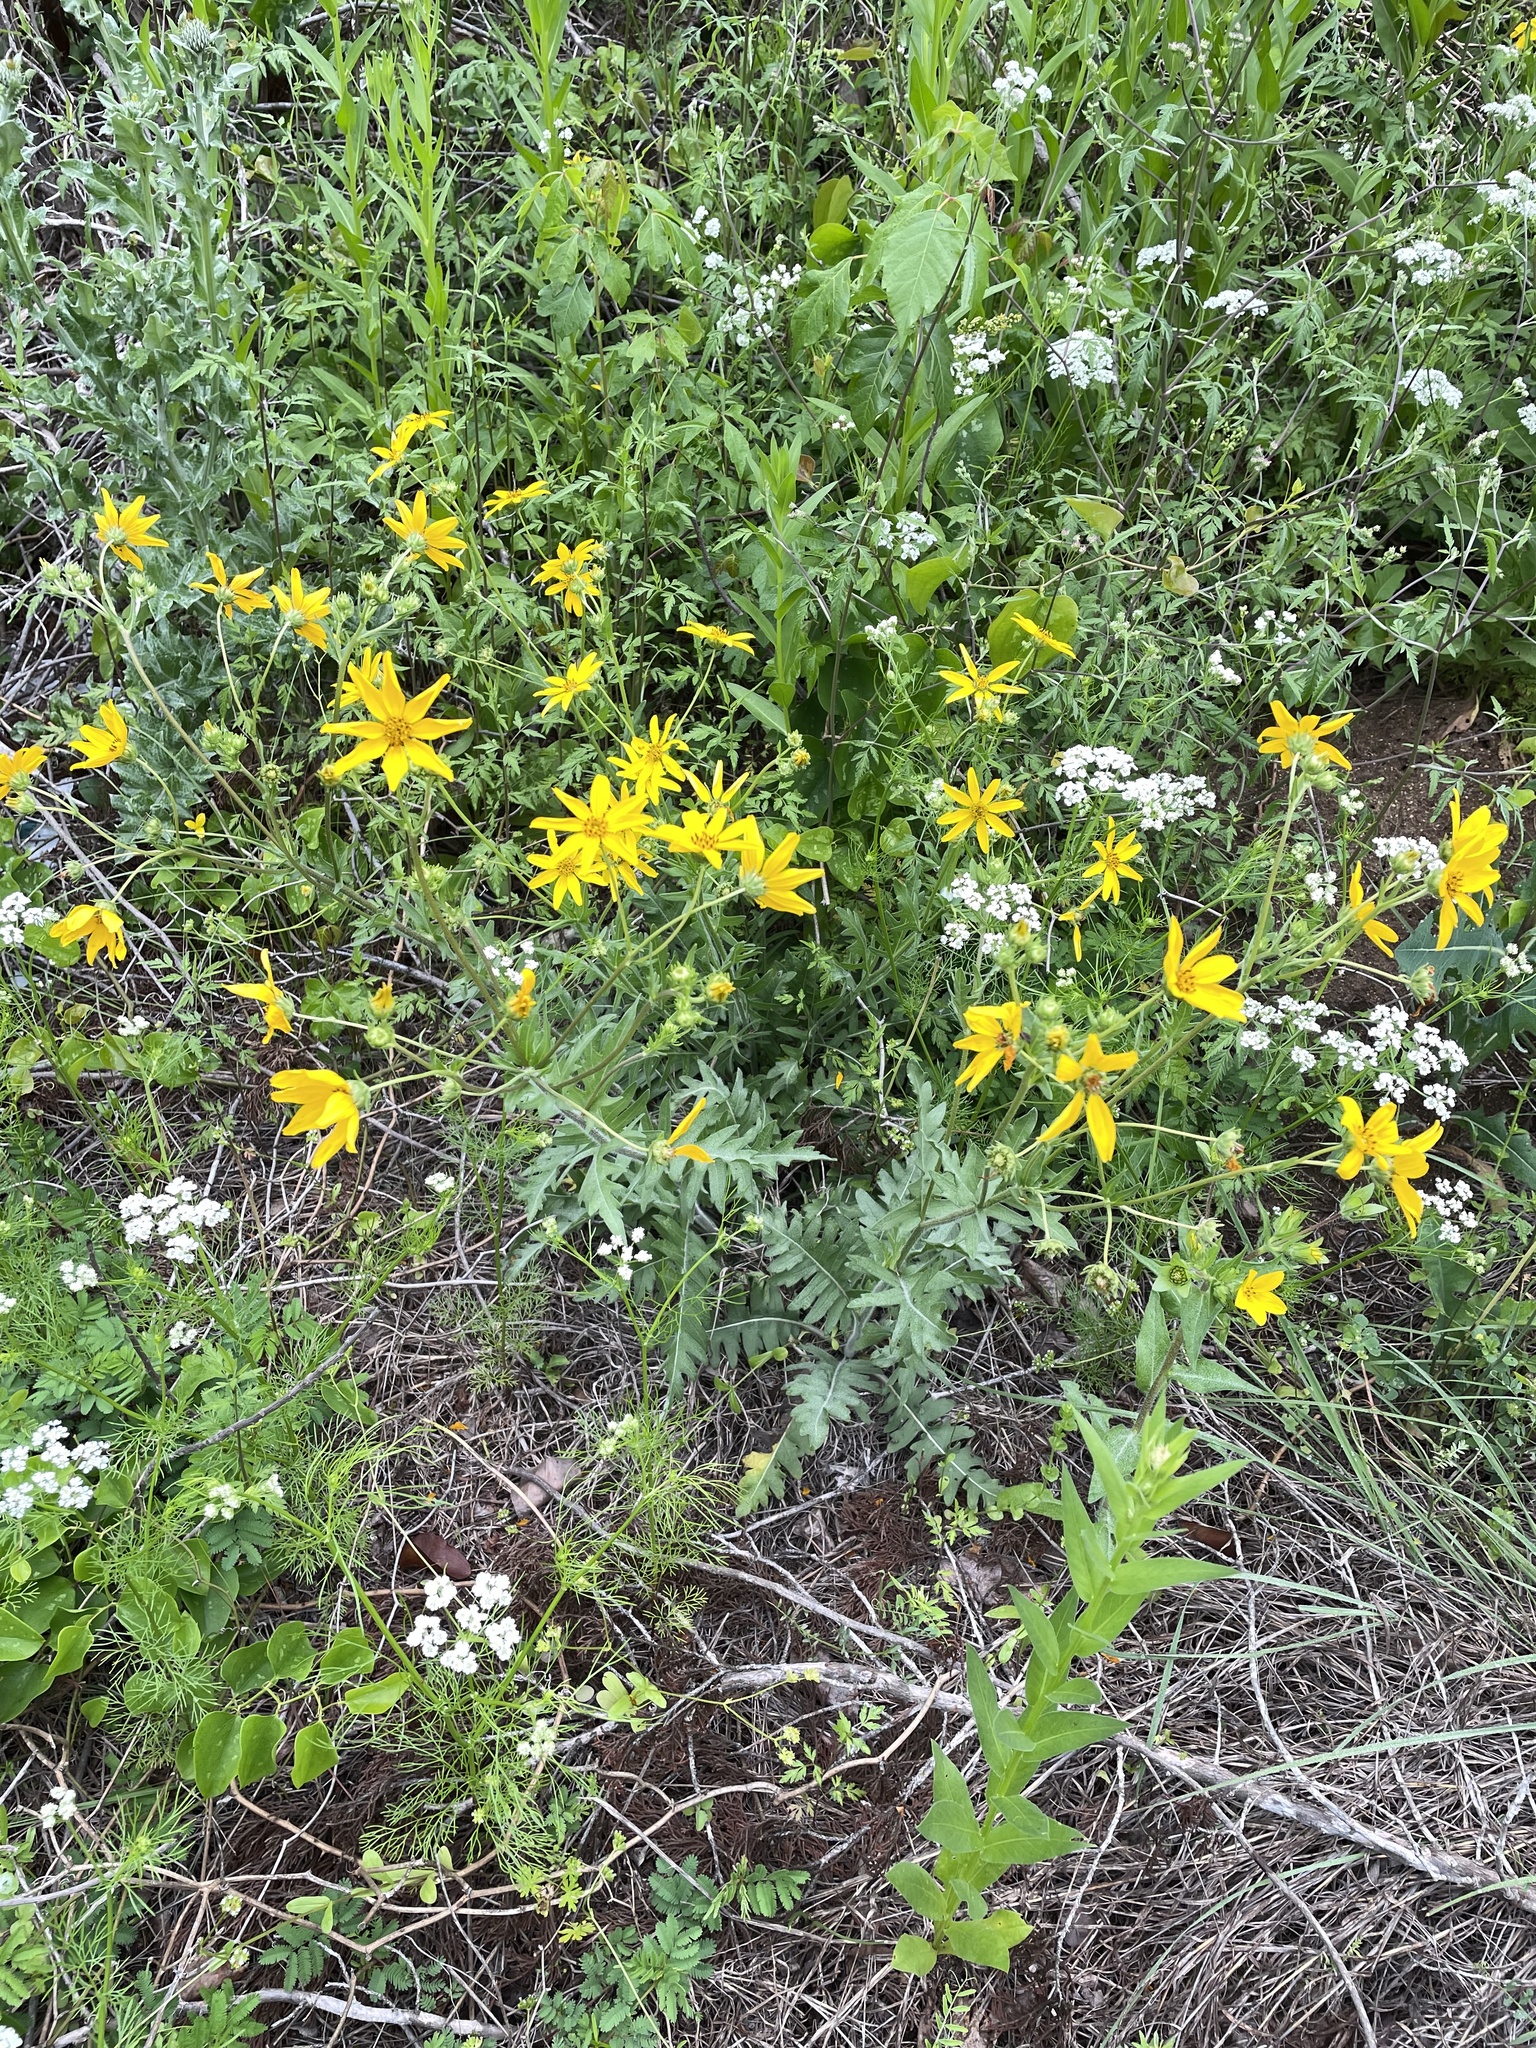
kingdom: Plantae
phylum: Tracheophyta
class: Magnoliopsida
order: Asterales
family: Asteraceae
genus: Engelmannia
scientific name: Engelmannia peristenia
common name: Engelmann's daisy
